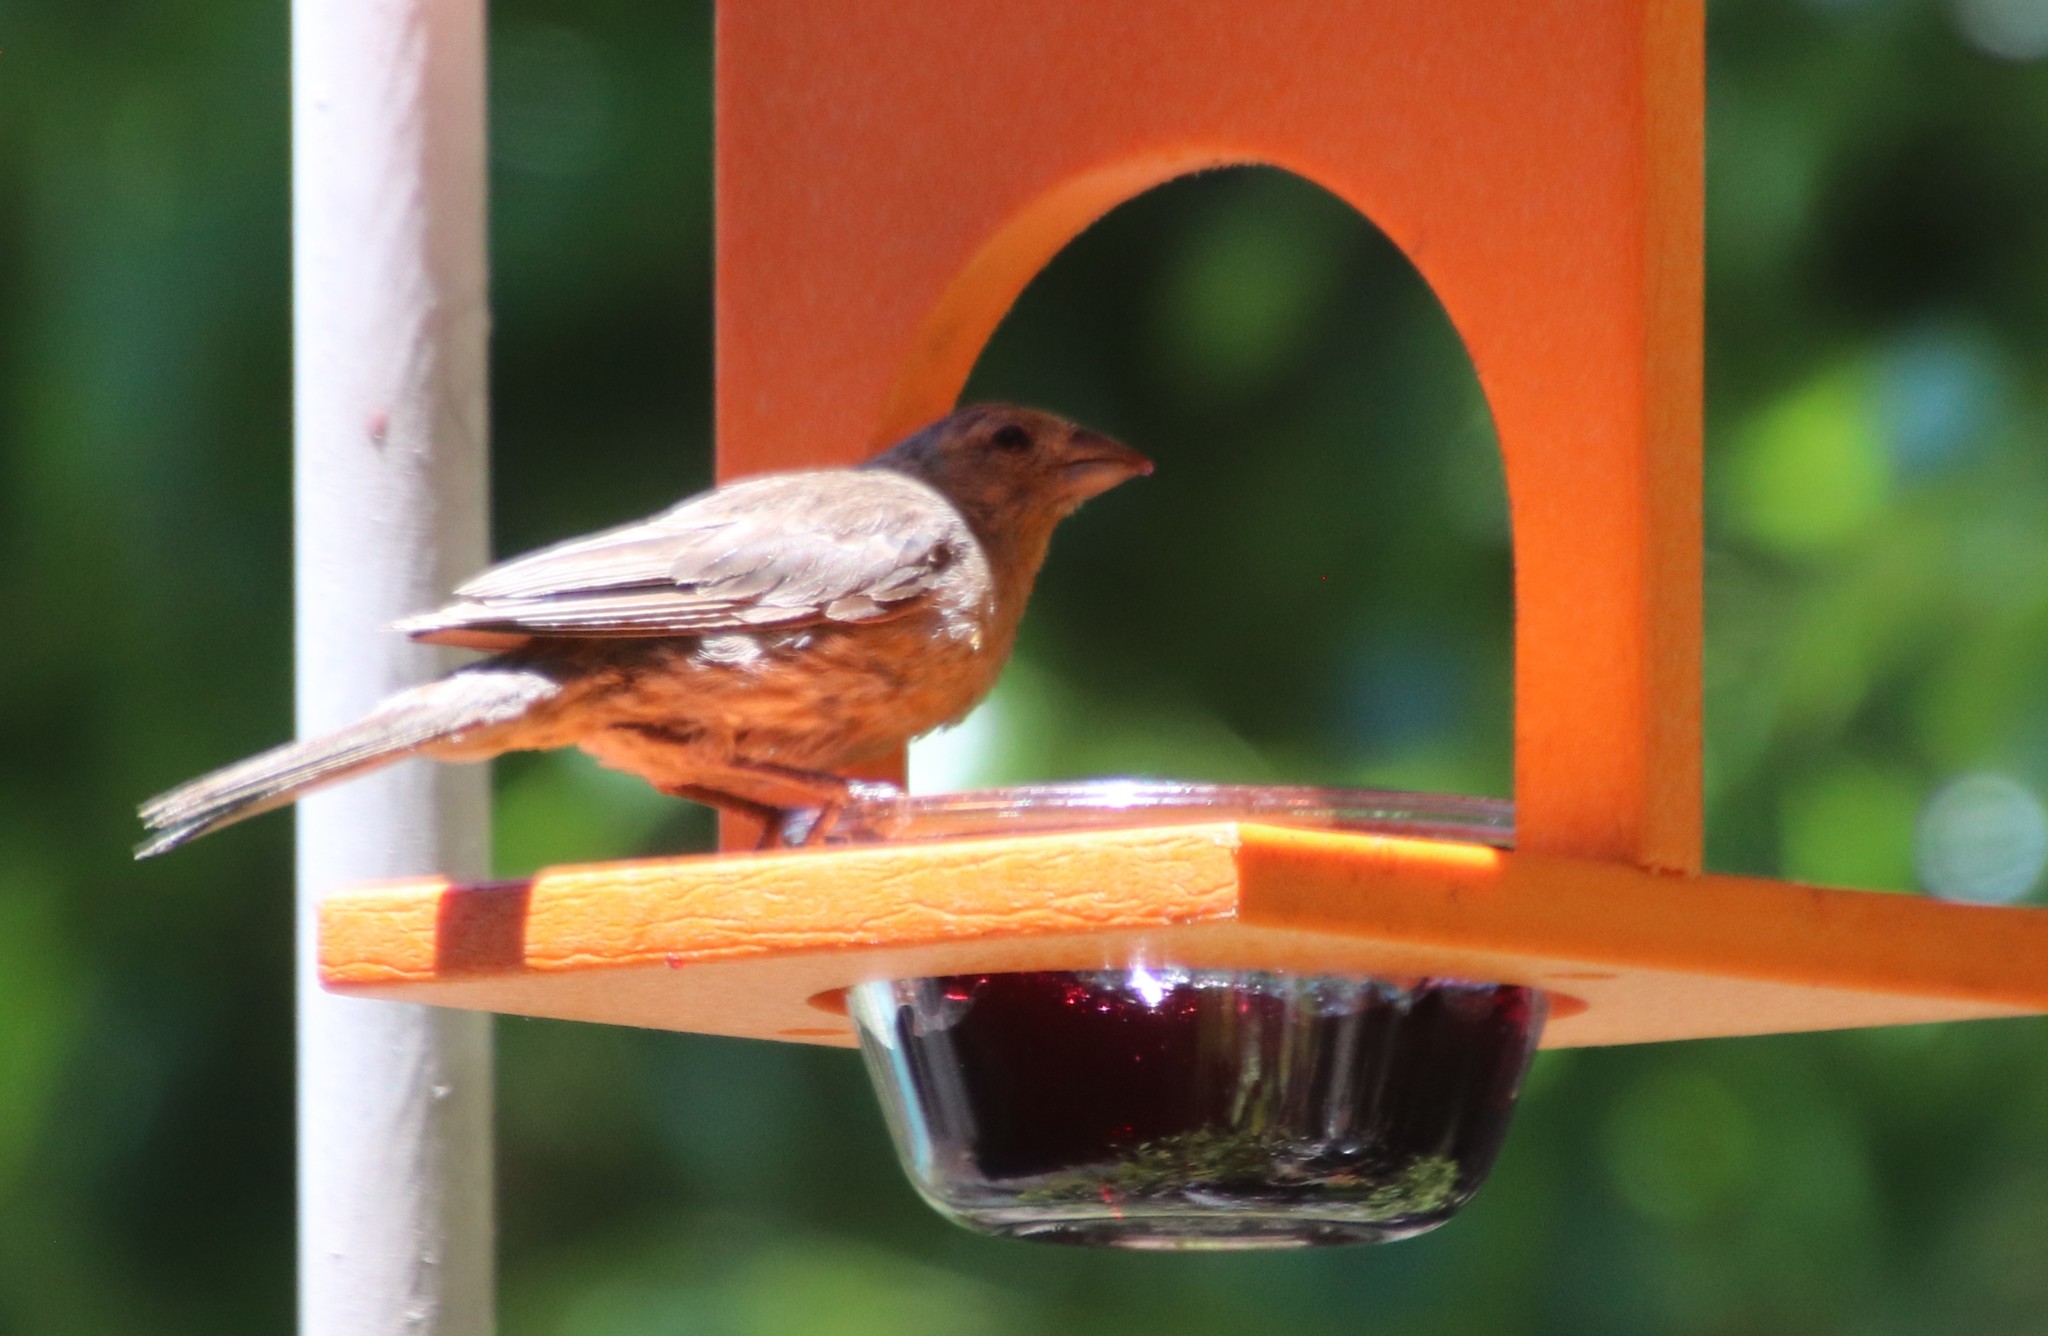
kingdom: Animalia
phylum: Chordata
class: Aves
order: Passeriformes
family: Fringillidae
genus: Haemorhous
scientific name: Haemorhous mexicanus
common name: House finch
